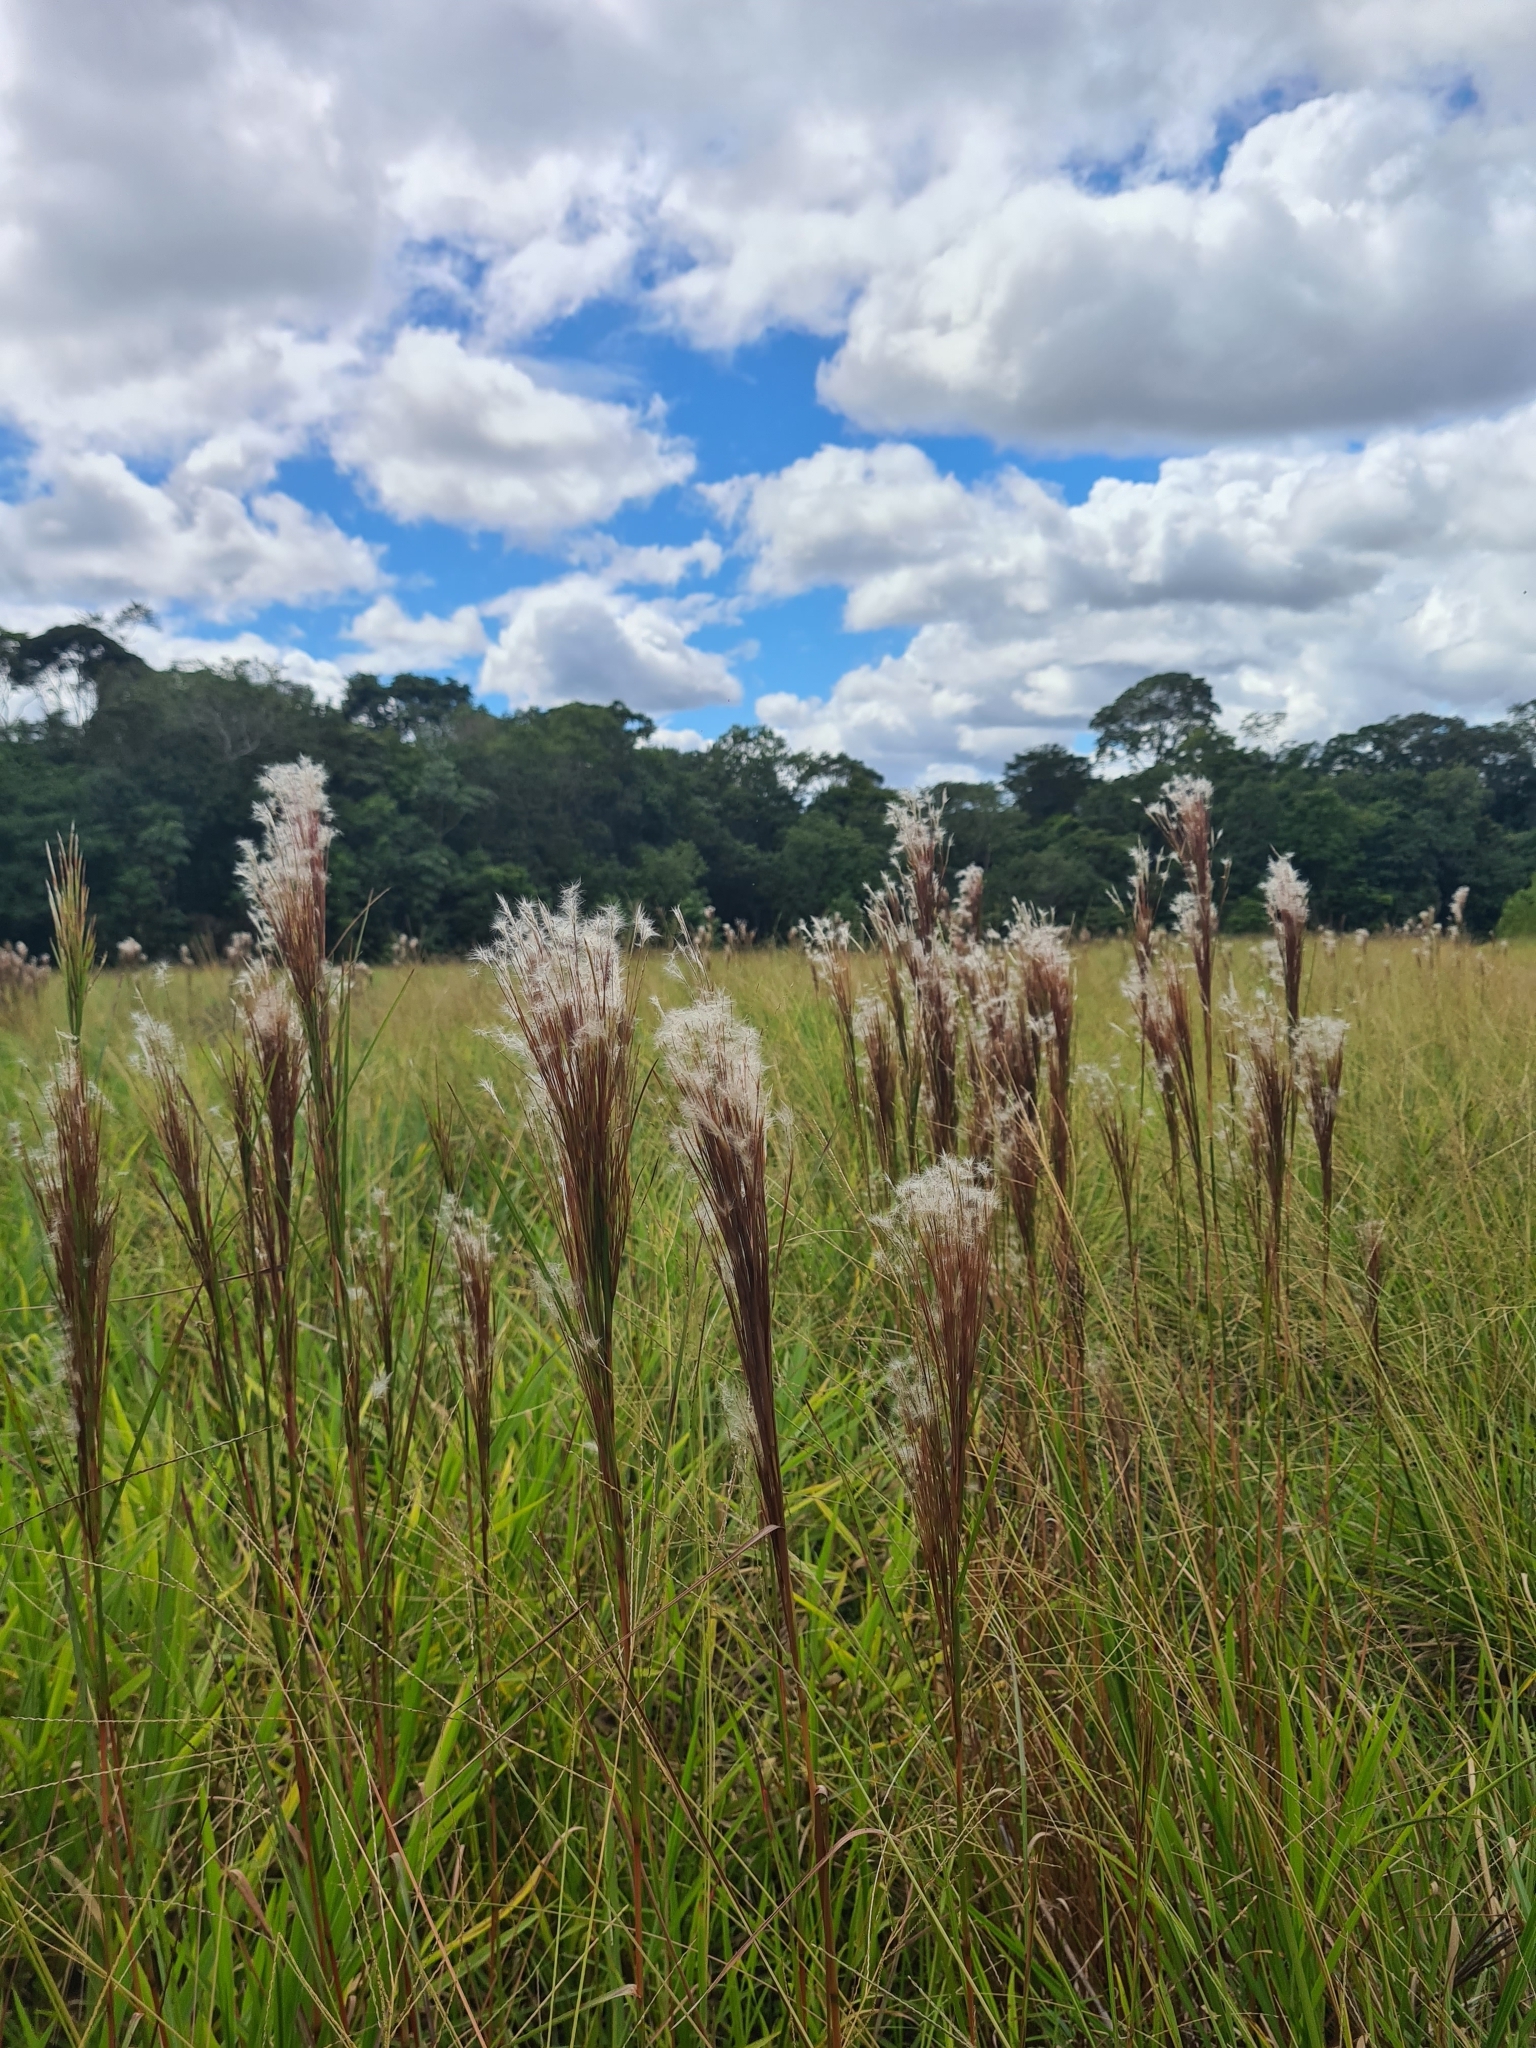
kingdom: Plantae
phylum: Tracheophyta
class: Liliopsida
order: Poales
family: Poaceae
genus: Andropogon
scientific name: Andropogon bicornis
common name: West indian foxtail grass
